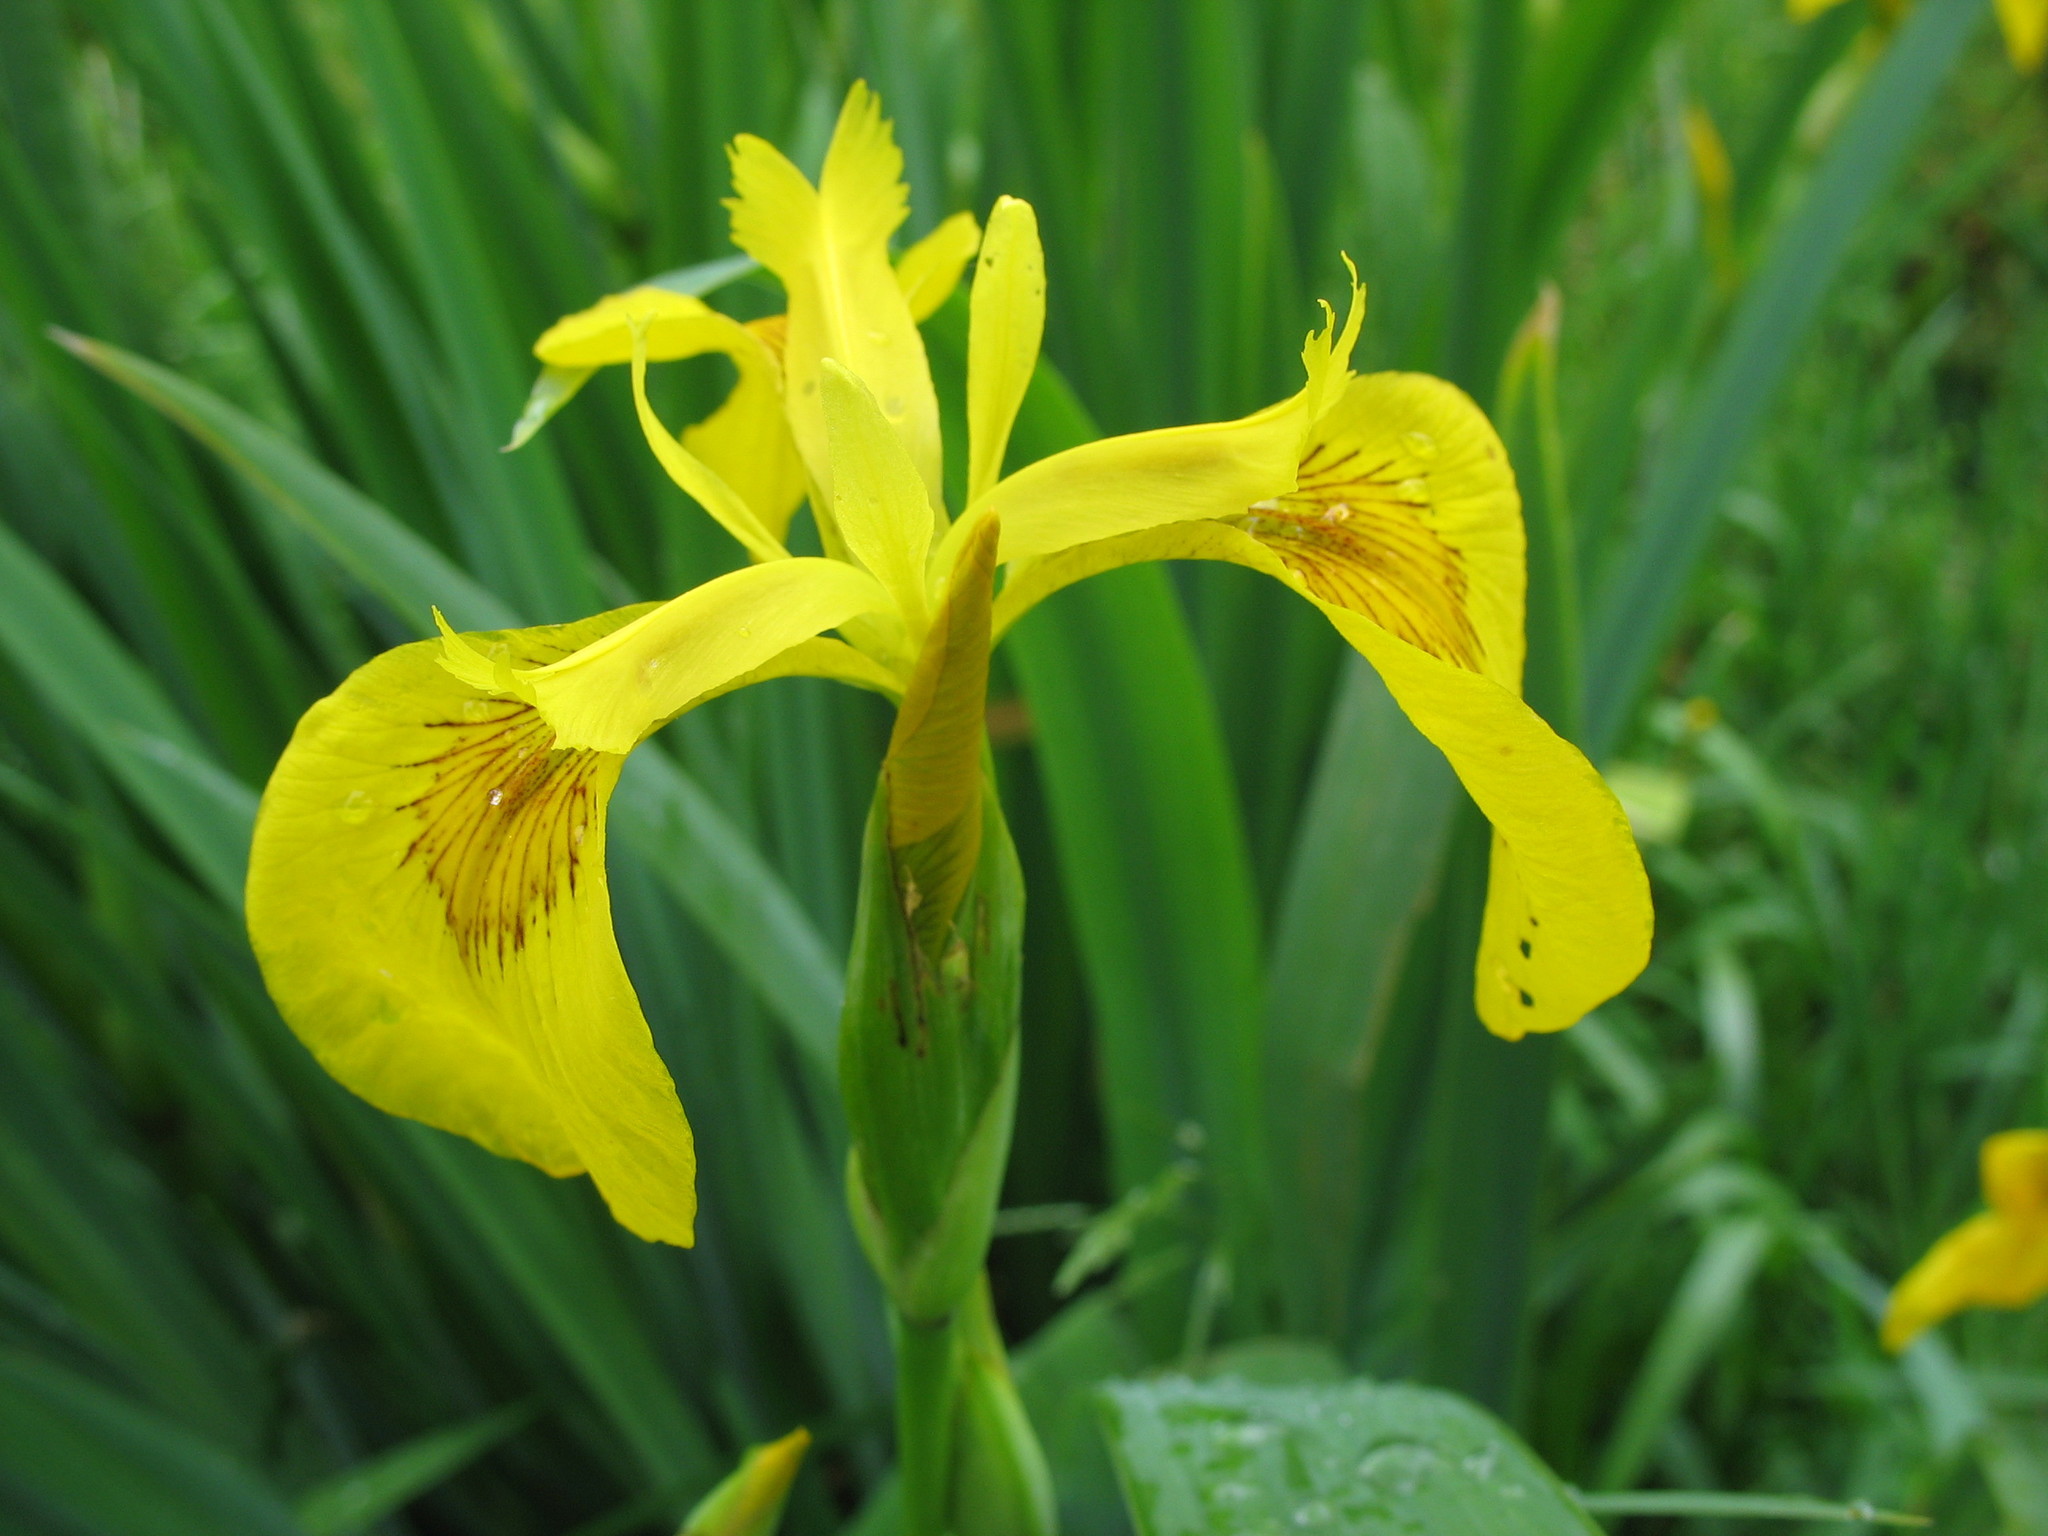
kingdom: Plantae
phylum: Tracheophyta
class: Liliopsida
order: Asparagales
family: Iridaceae
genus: Iris
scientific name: Iris pseudacorus
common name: Yellow flag
